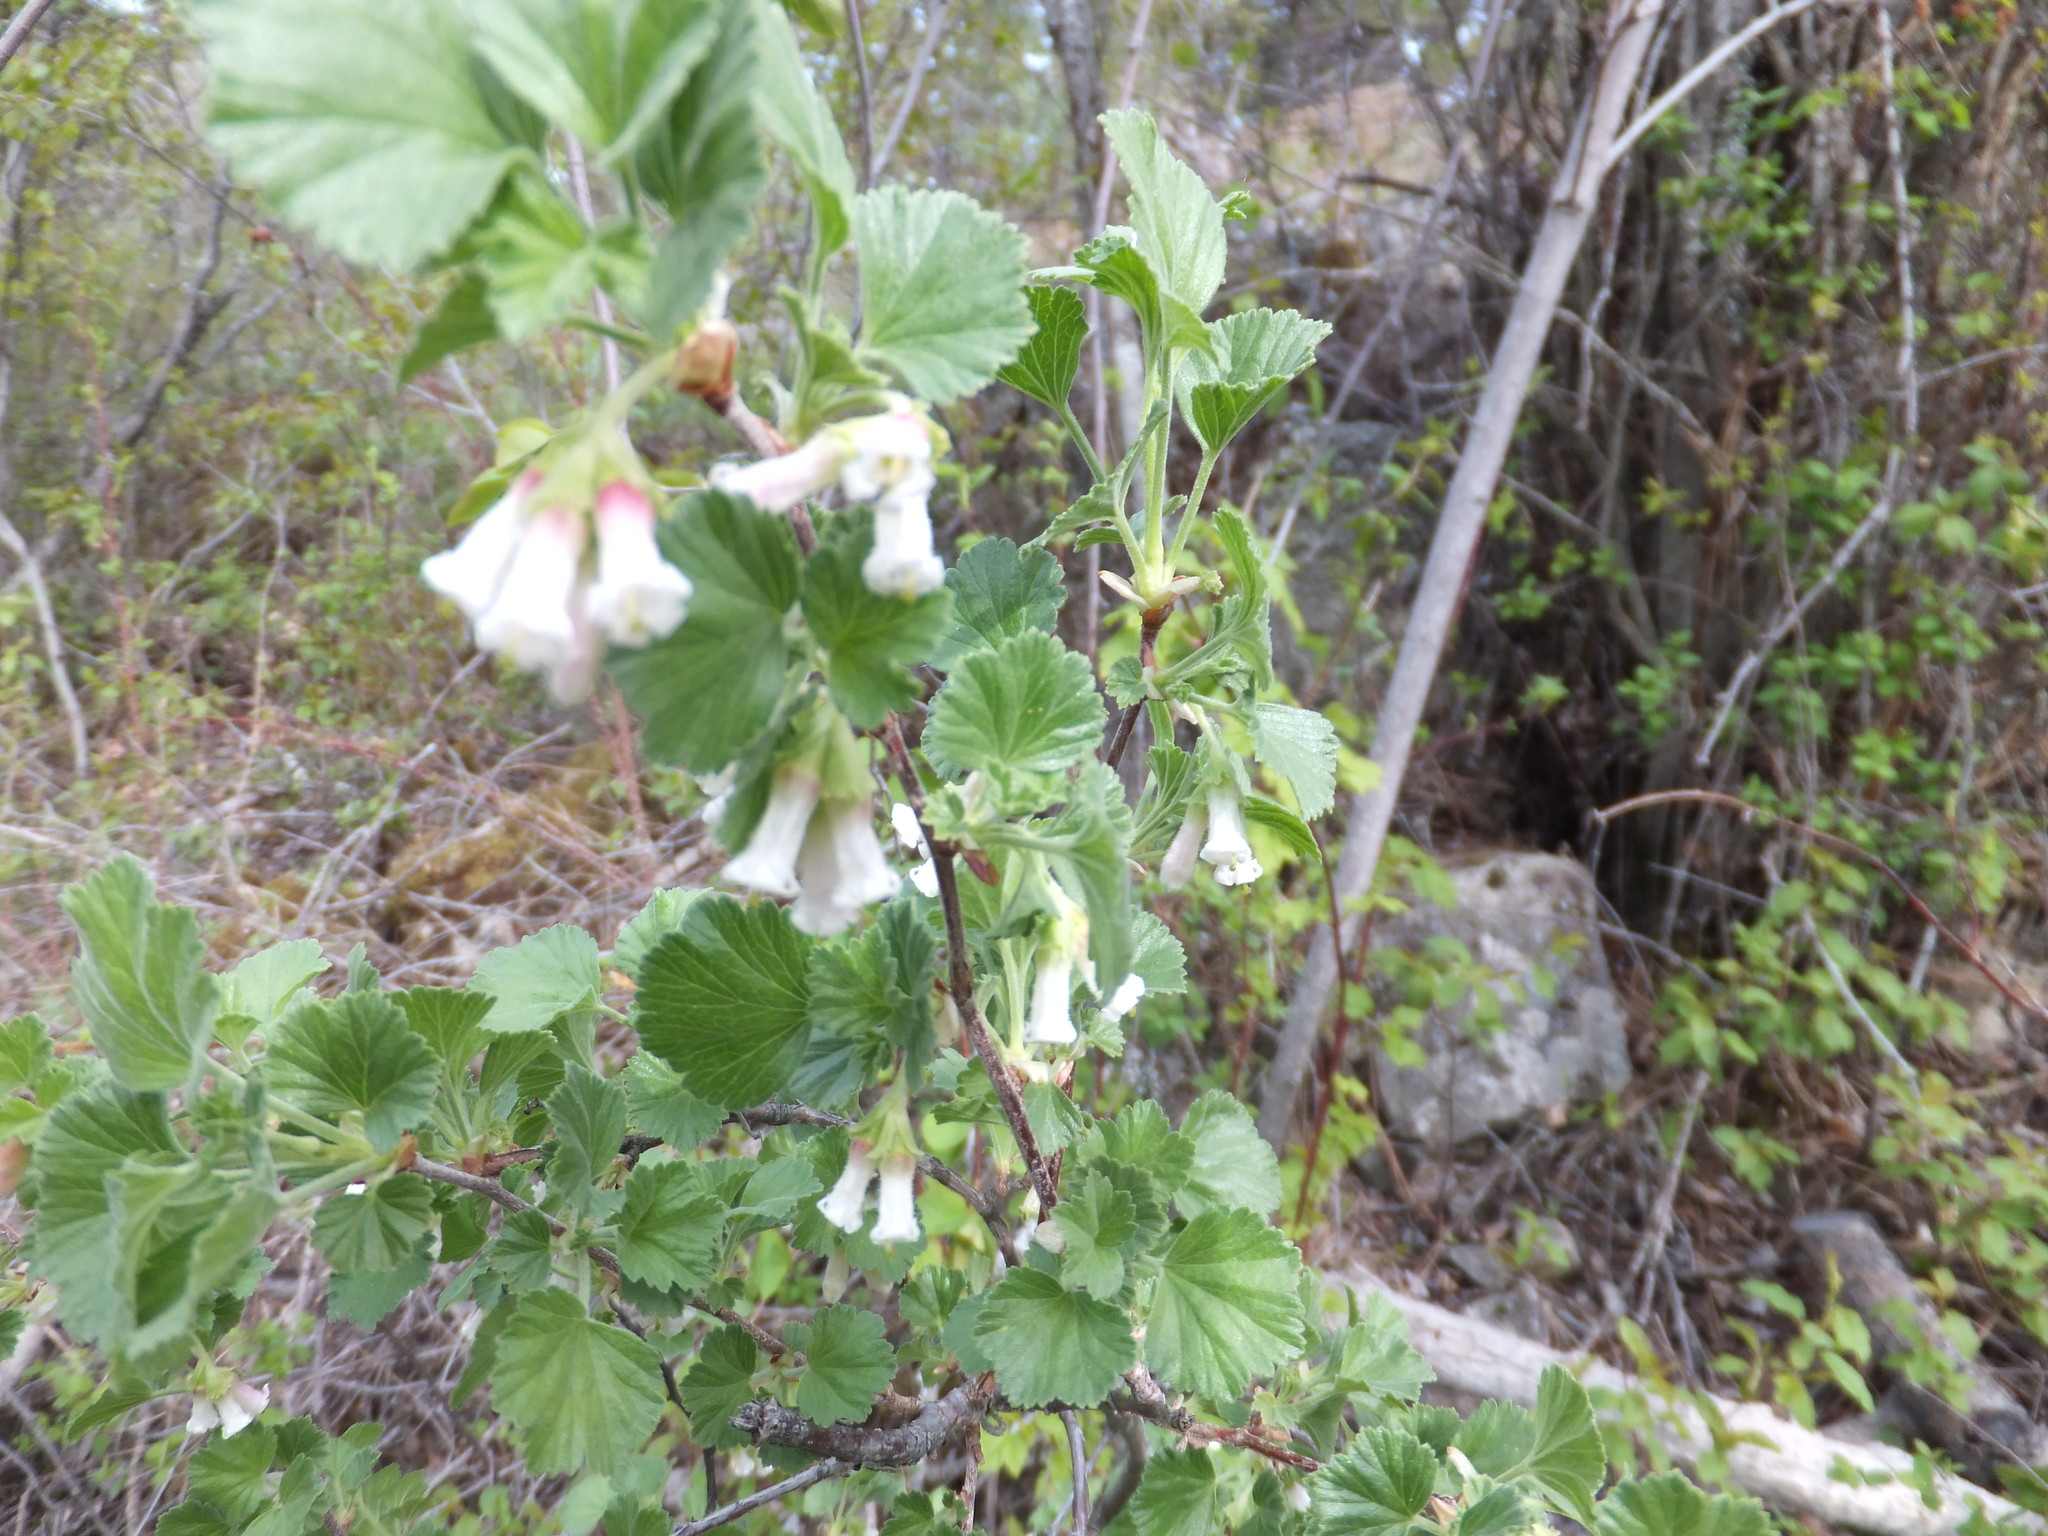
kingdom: Plantae
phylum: Tracheophyta
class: Magnoliopsida
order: Saxifragales
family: Grossulariaceae
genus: Ribes
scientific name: Ribes cereum
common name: Wax currant
